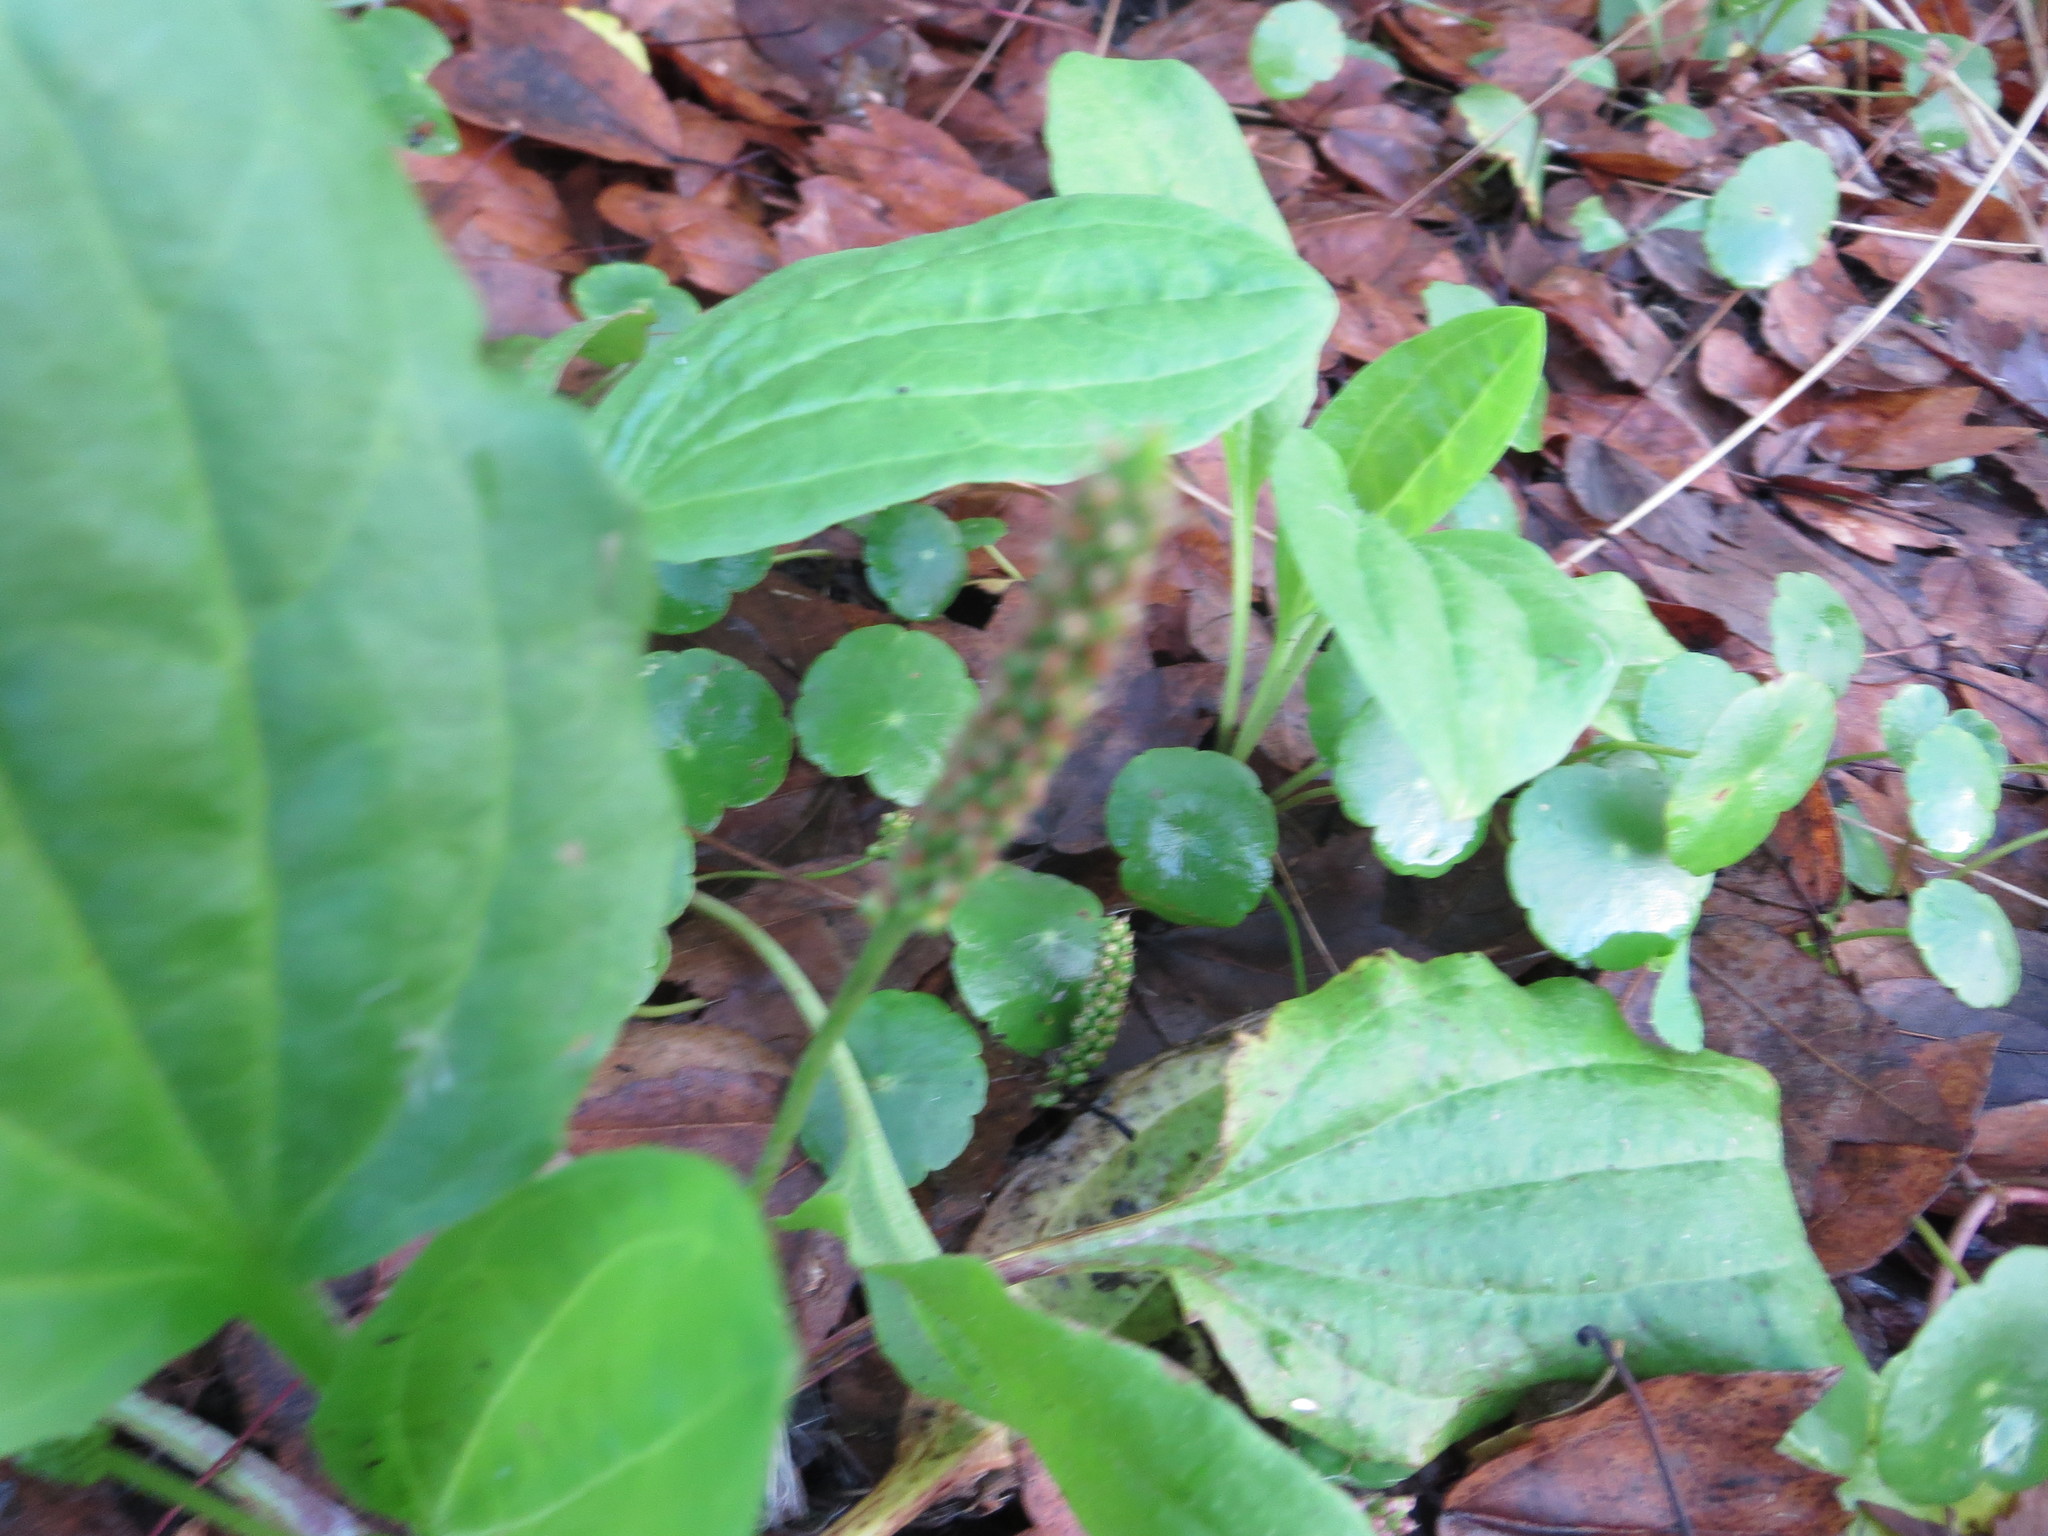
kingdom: Plantae
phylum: Tracheophyta
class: Magnoliopsida
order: Lamiales
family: Plantaginaceae
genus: Plantago
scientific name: Plantago major
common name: Common plantain
